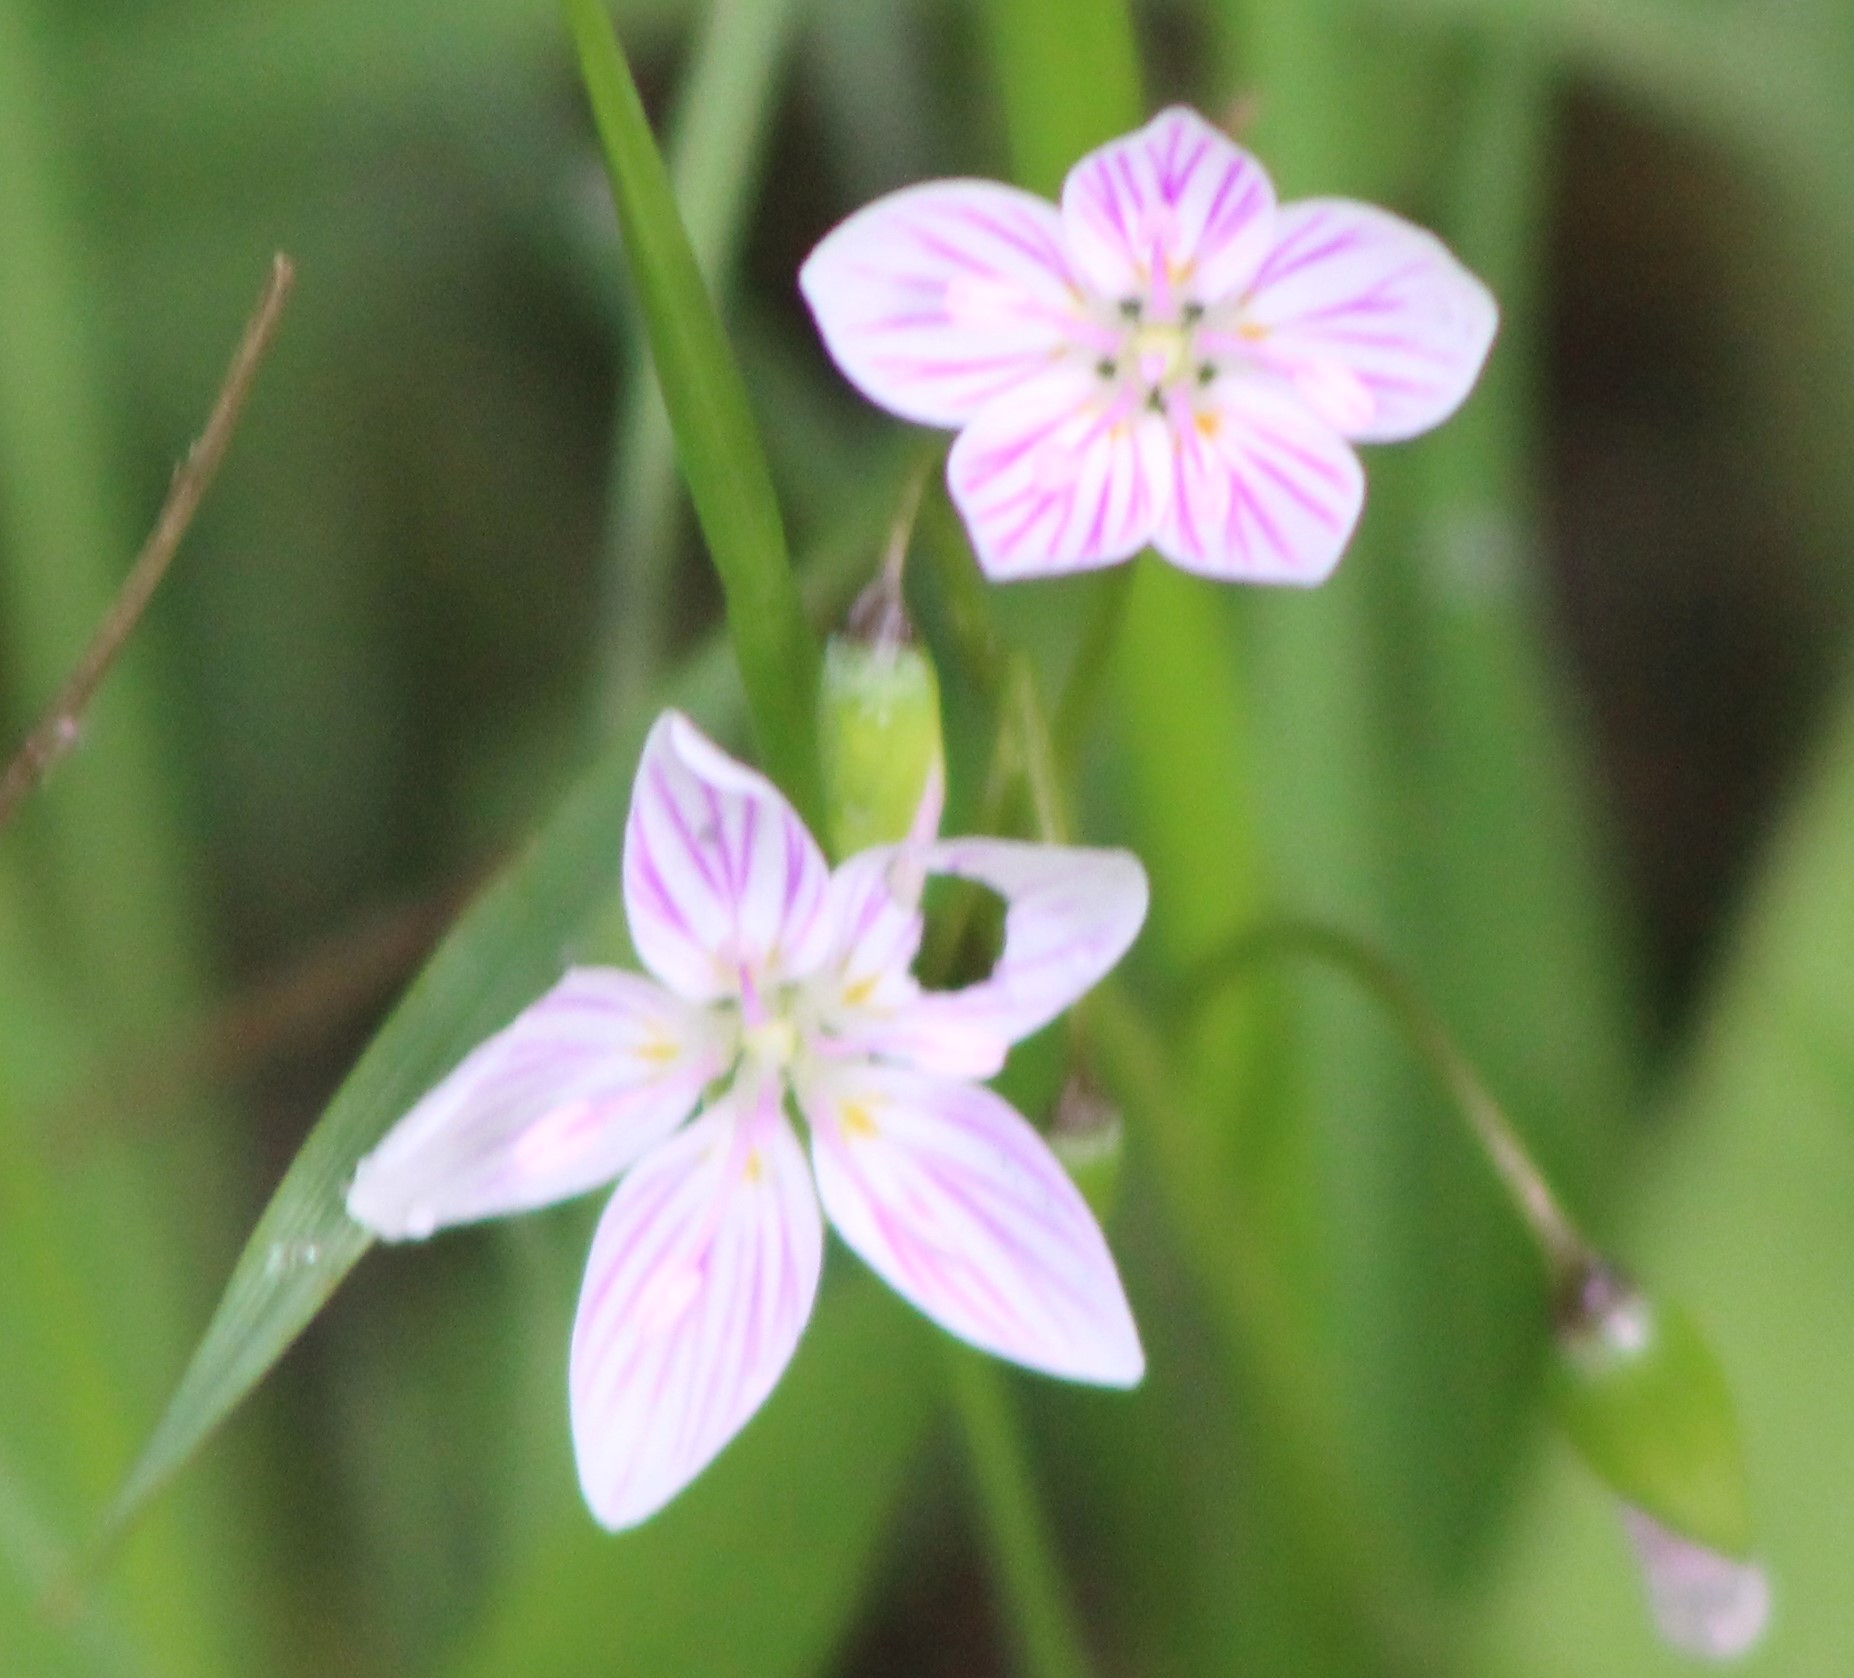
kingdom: Plantae
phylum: Tracheophyta
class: Magnoliopsida
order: Caryophyllales
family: Montiaceae
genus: Claytonia
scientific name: Claytonia virginica
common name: Virginia springbeauty
